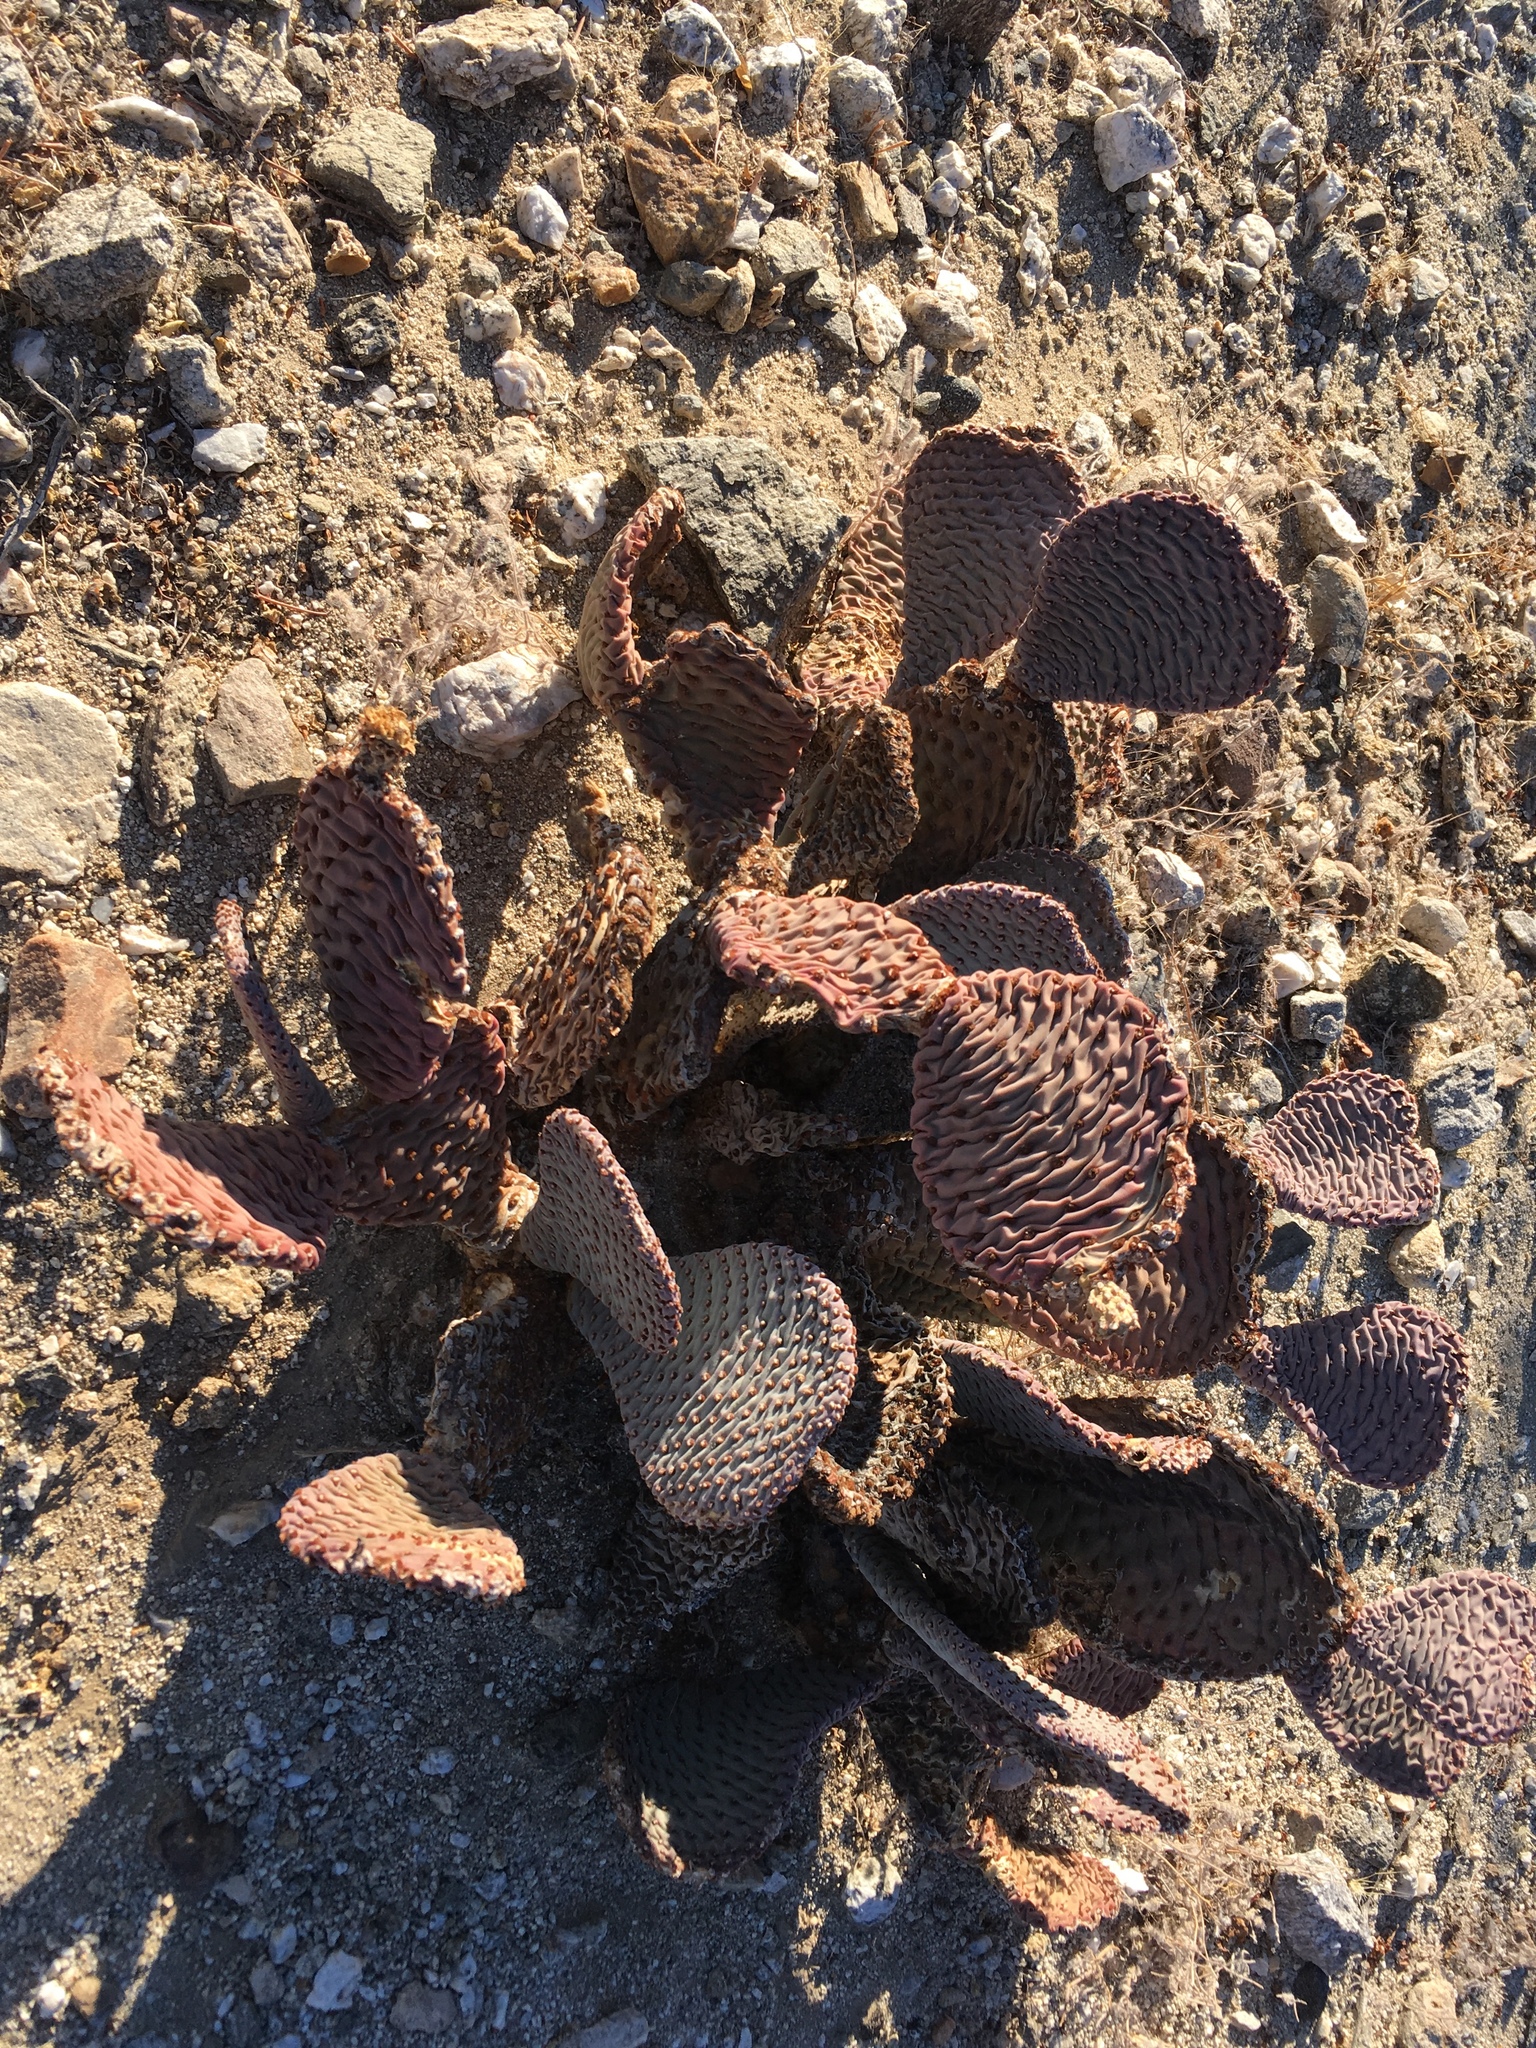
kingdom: Plantae
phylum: Tracheophyta
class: Magnoliopsida
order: Caryophyllales
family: Cactaceae
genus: Opuntia
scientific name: Opuntia basilaris
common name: Beavertail prickly-pear
